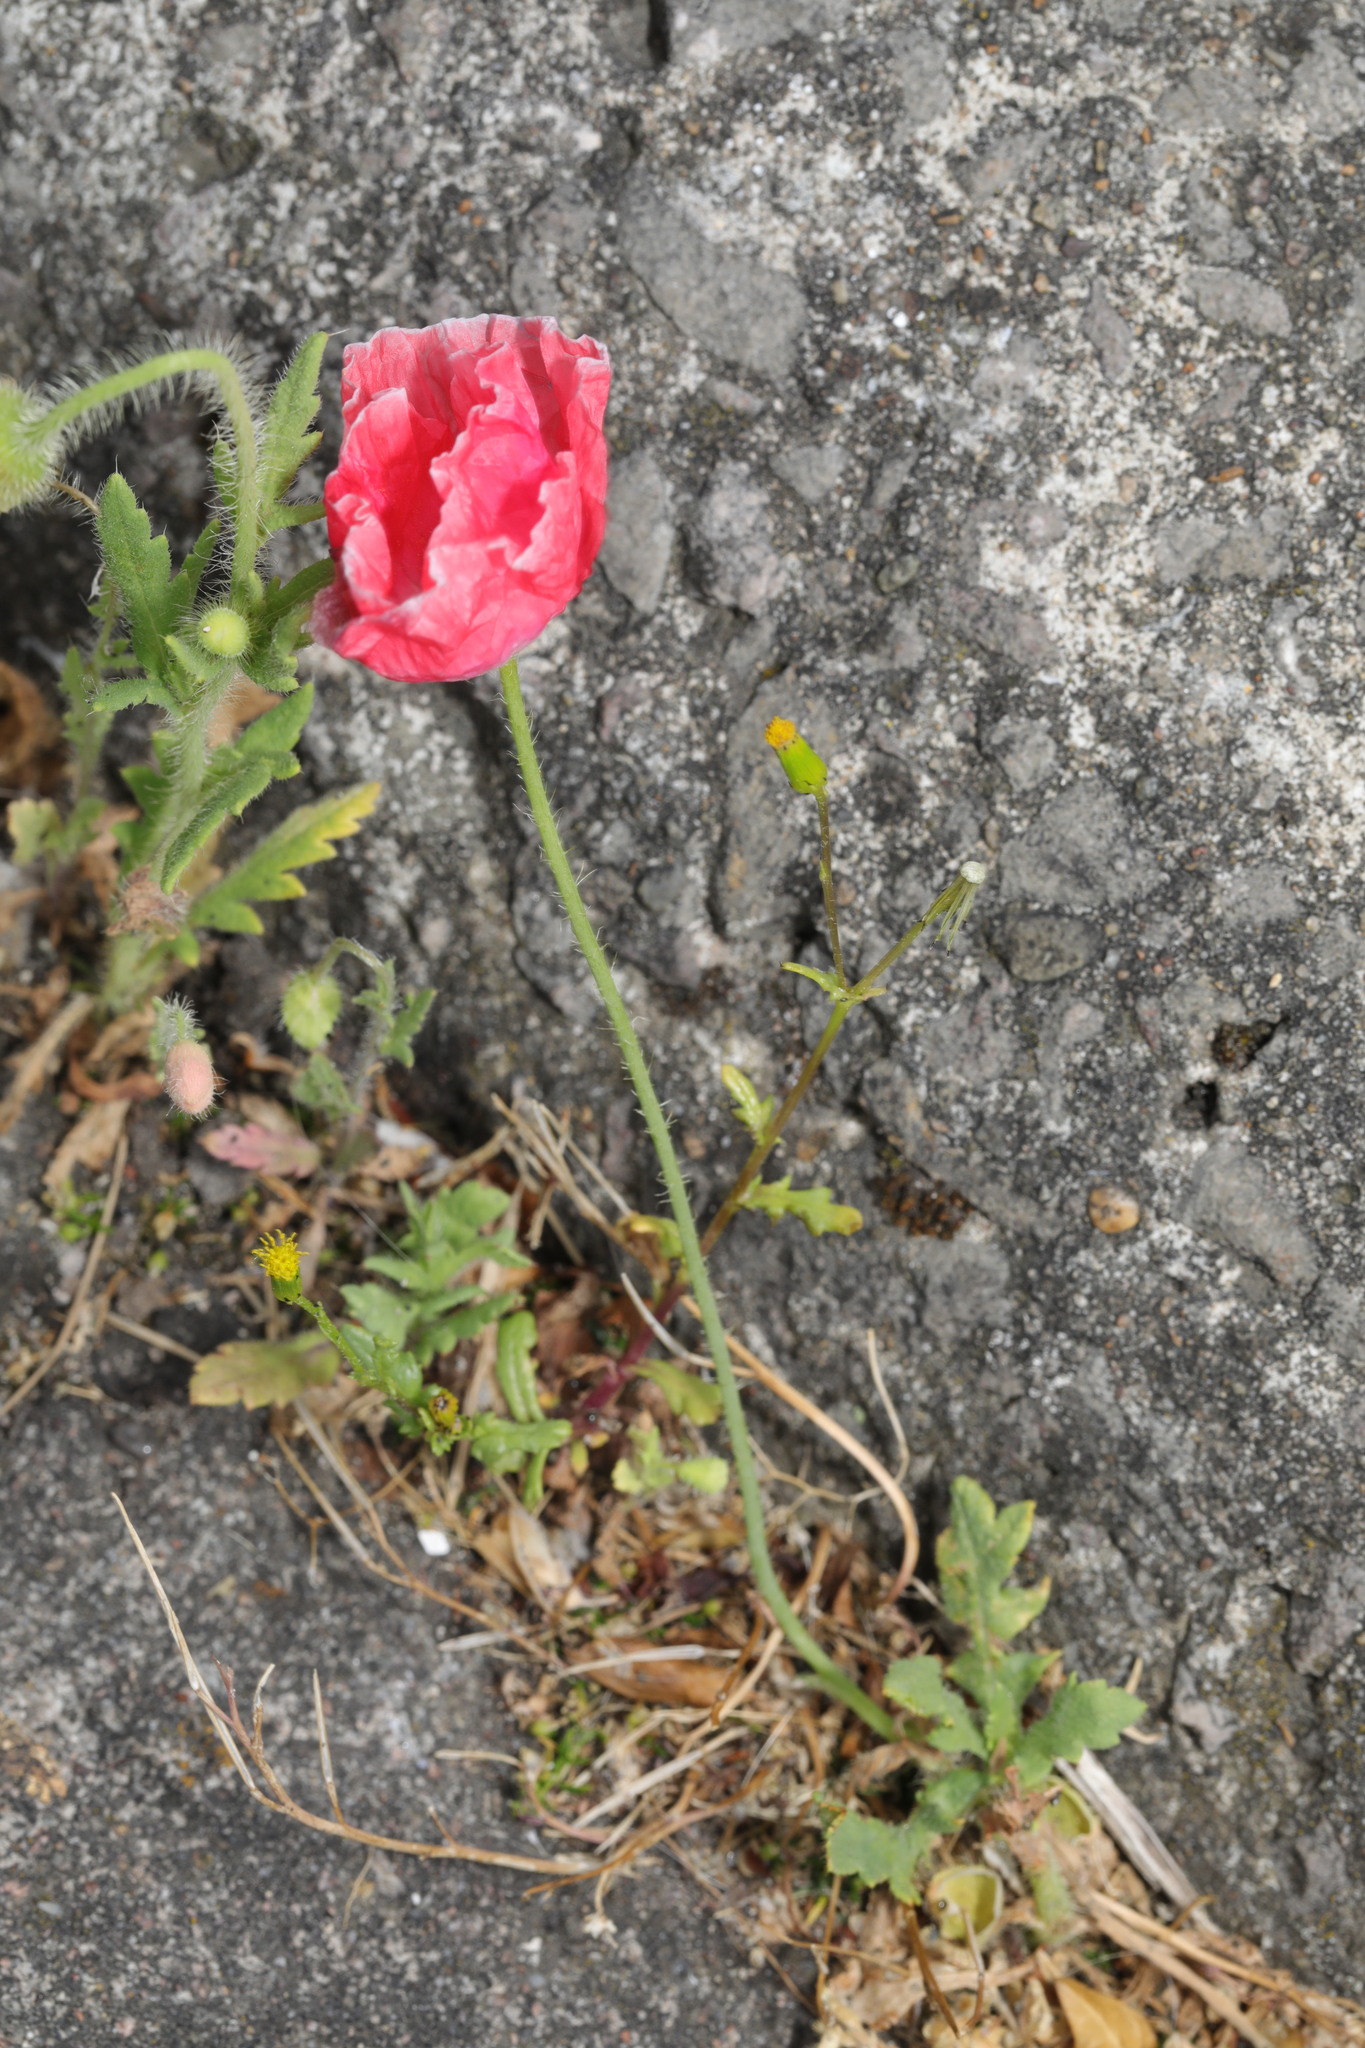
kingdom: Plantae
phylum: Tracheophyta
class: Magnoliopsida
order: Ranunculales
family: Papaveraceae
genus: Papaver
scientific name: Papaver rhoeas
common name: Corn poppy
